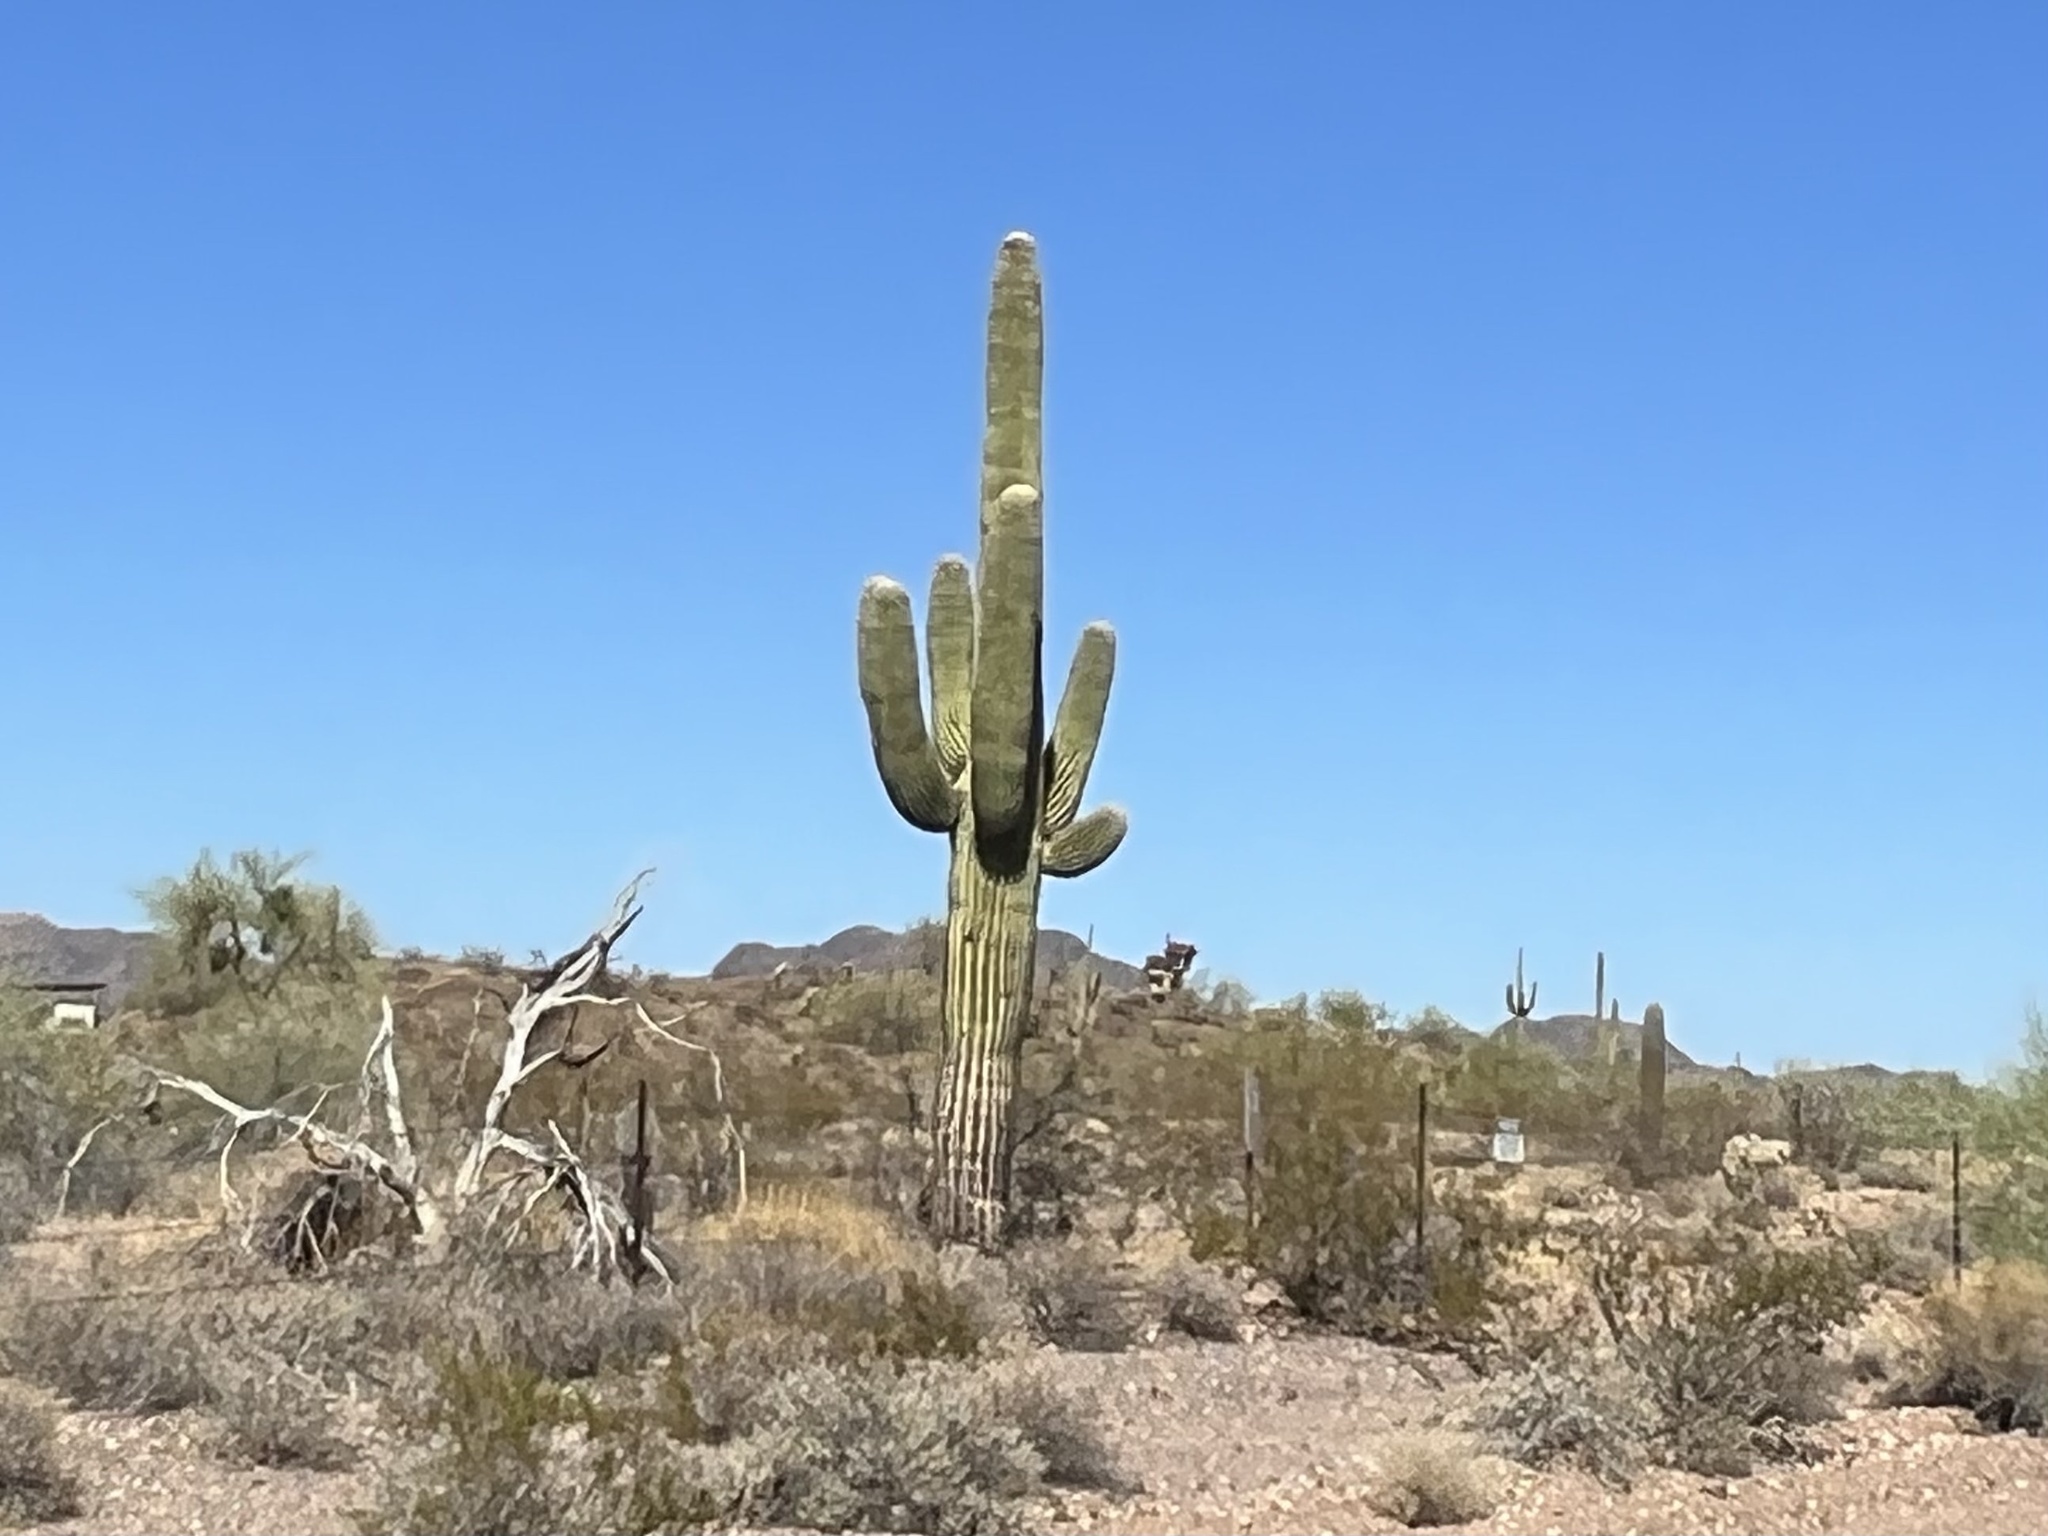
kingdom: Plantae
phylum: Tracheophyta
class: Magnoliopsida
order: Caryophyllales
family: Cactaceae
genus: Carnegiea
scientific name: Carnegiea gigantea
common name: Saguaro
